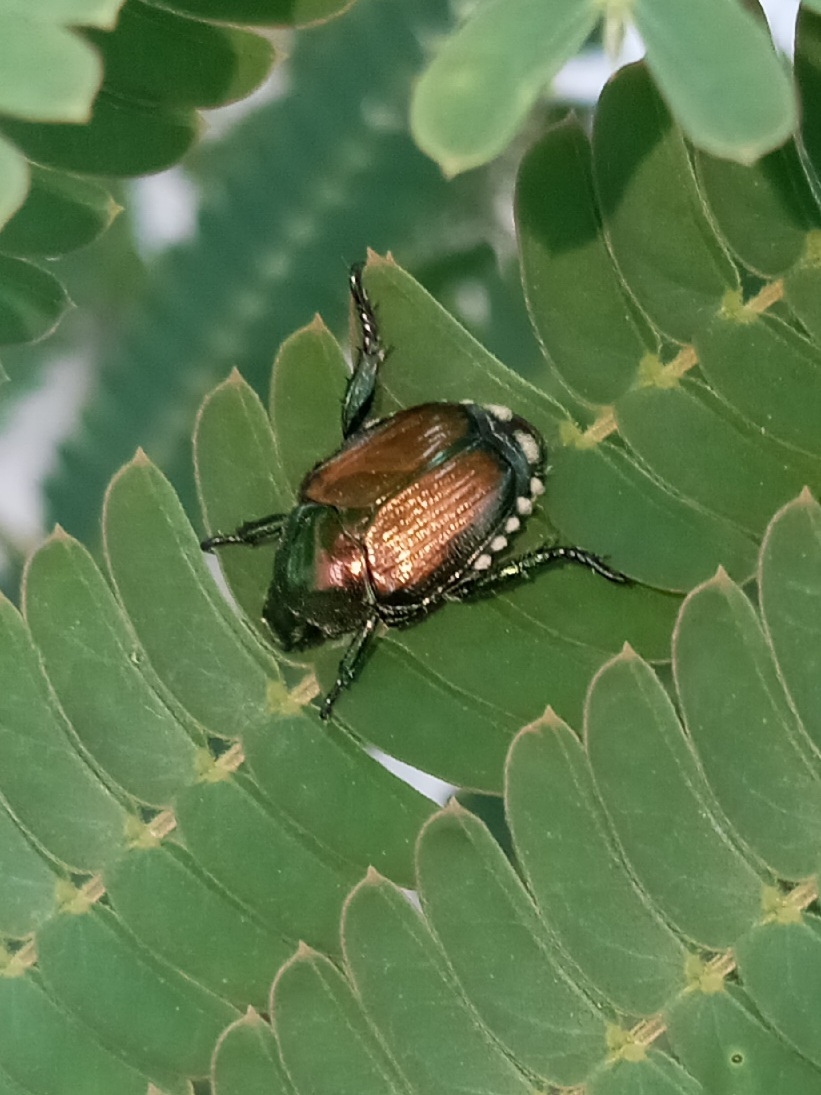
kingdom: Animalia
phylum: Arthropoda
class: Insecta
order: Coleoptera
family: Scarabaeidae
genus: Popillia
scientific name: Popillia japonica
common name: Japanese beetle
